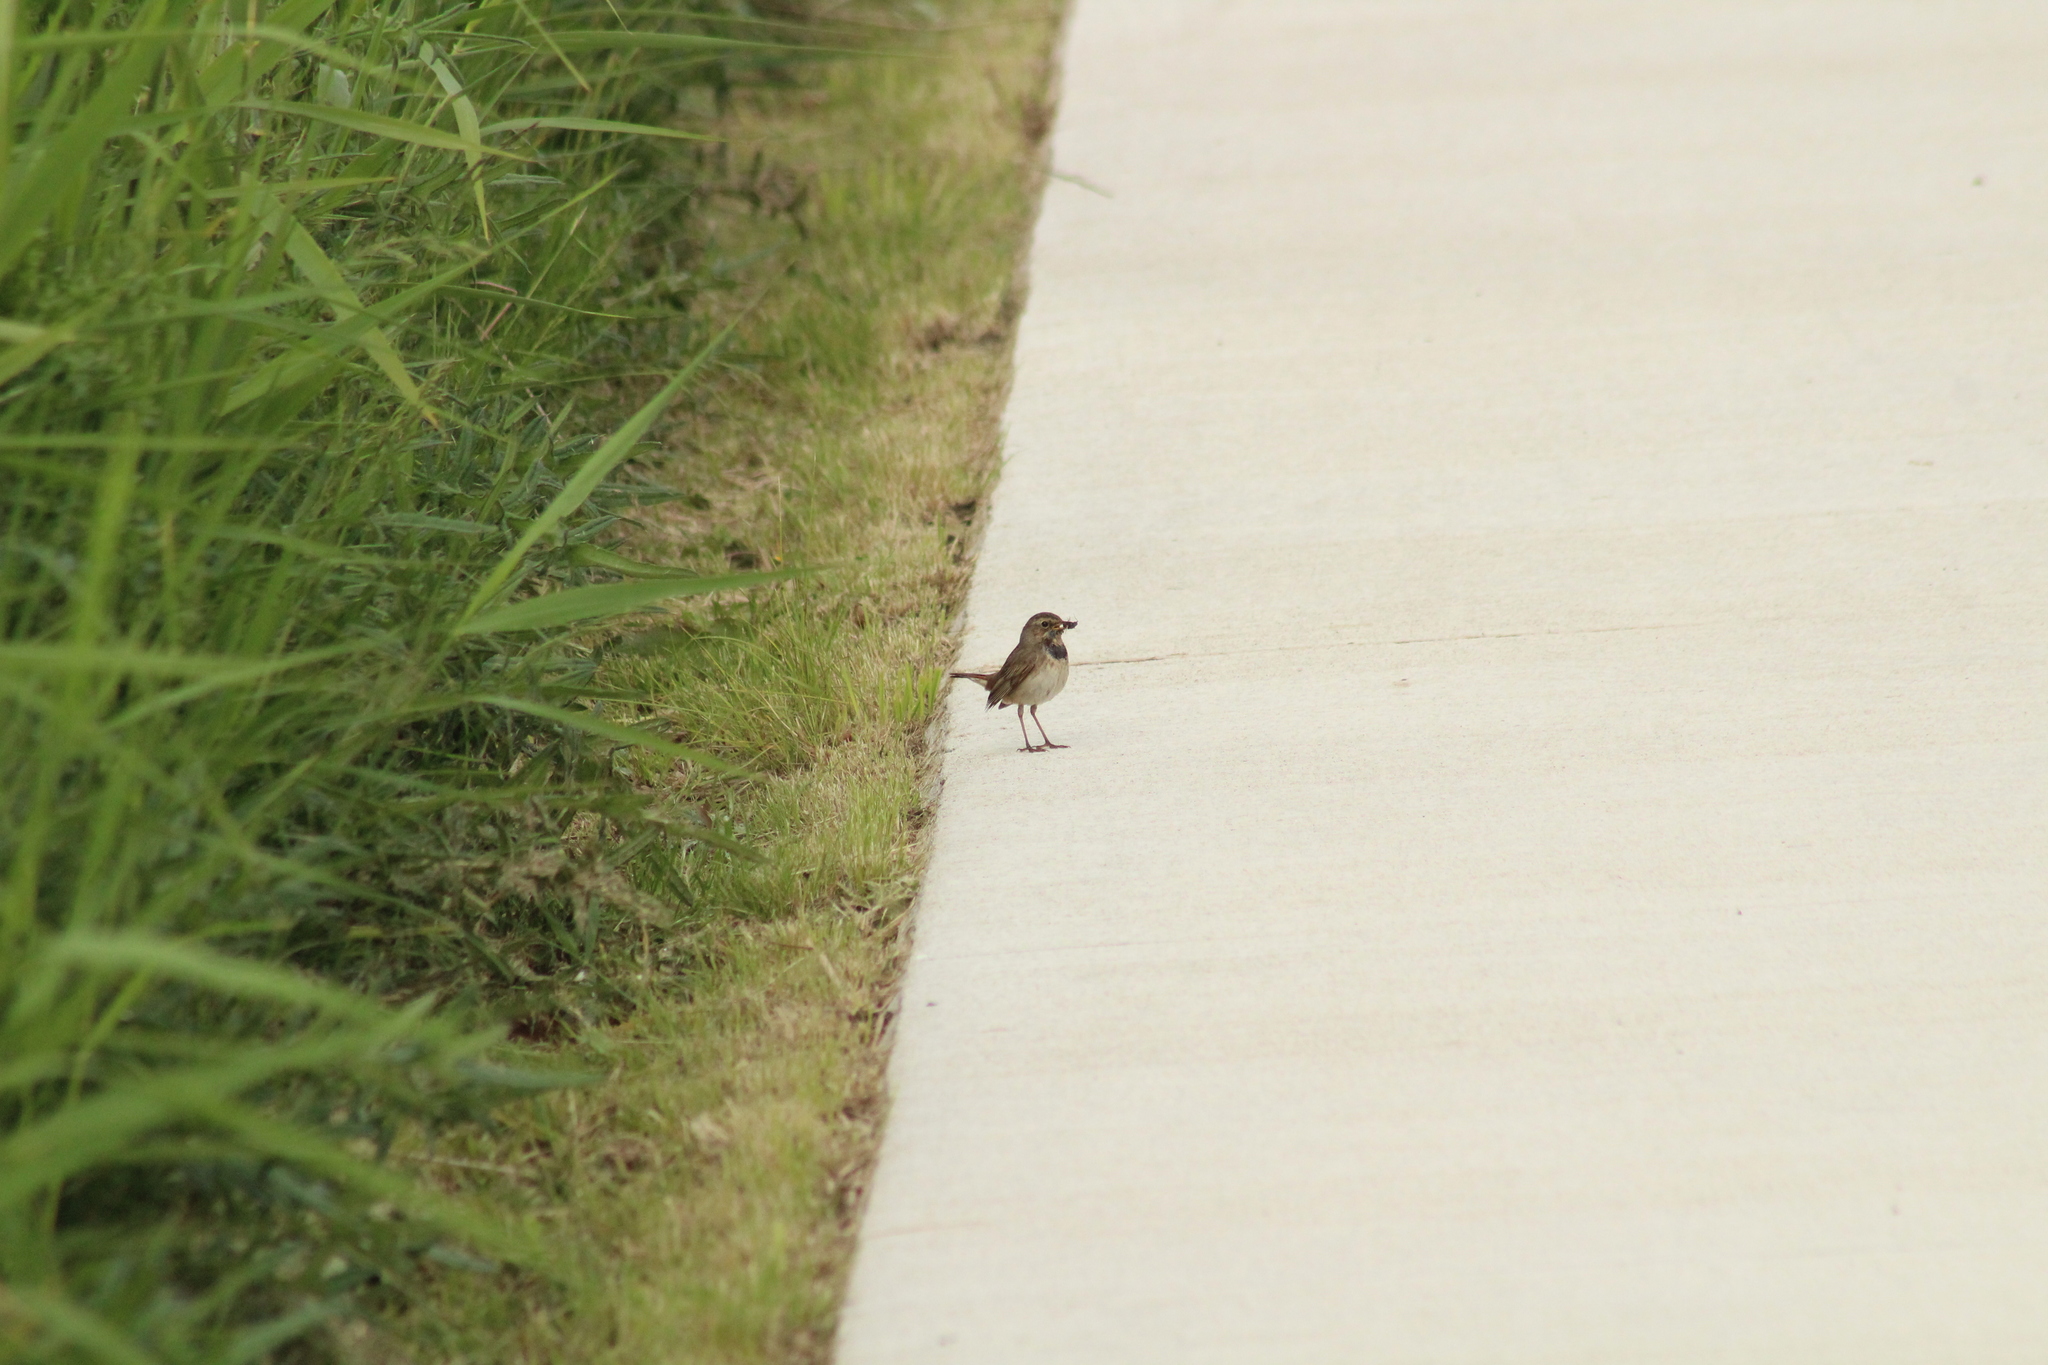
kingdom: Animalia
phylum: Chordata
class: Aves
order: Passeriformes
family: Muscicapidae
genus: Luscinia
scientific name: Luscinia svecica
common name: Bluethroat
